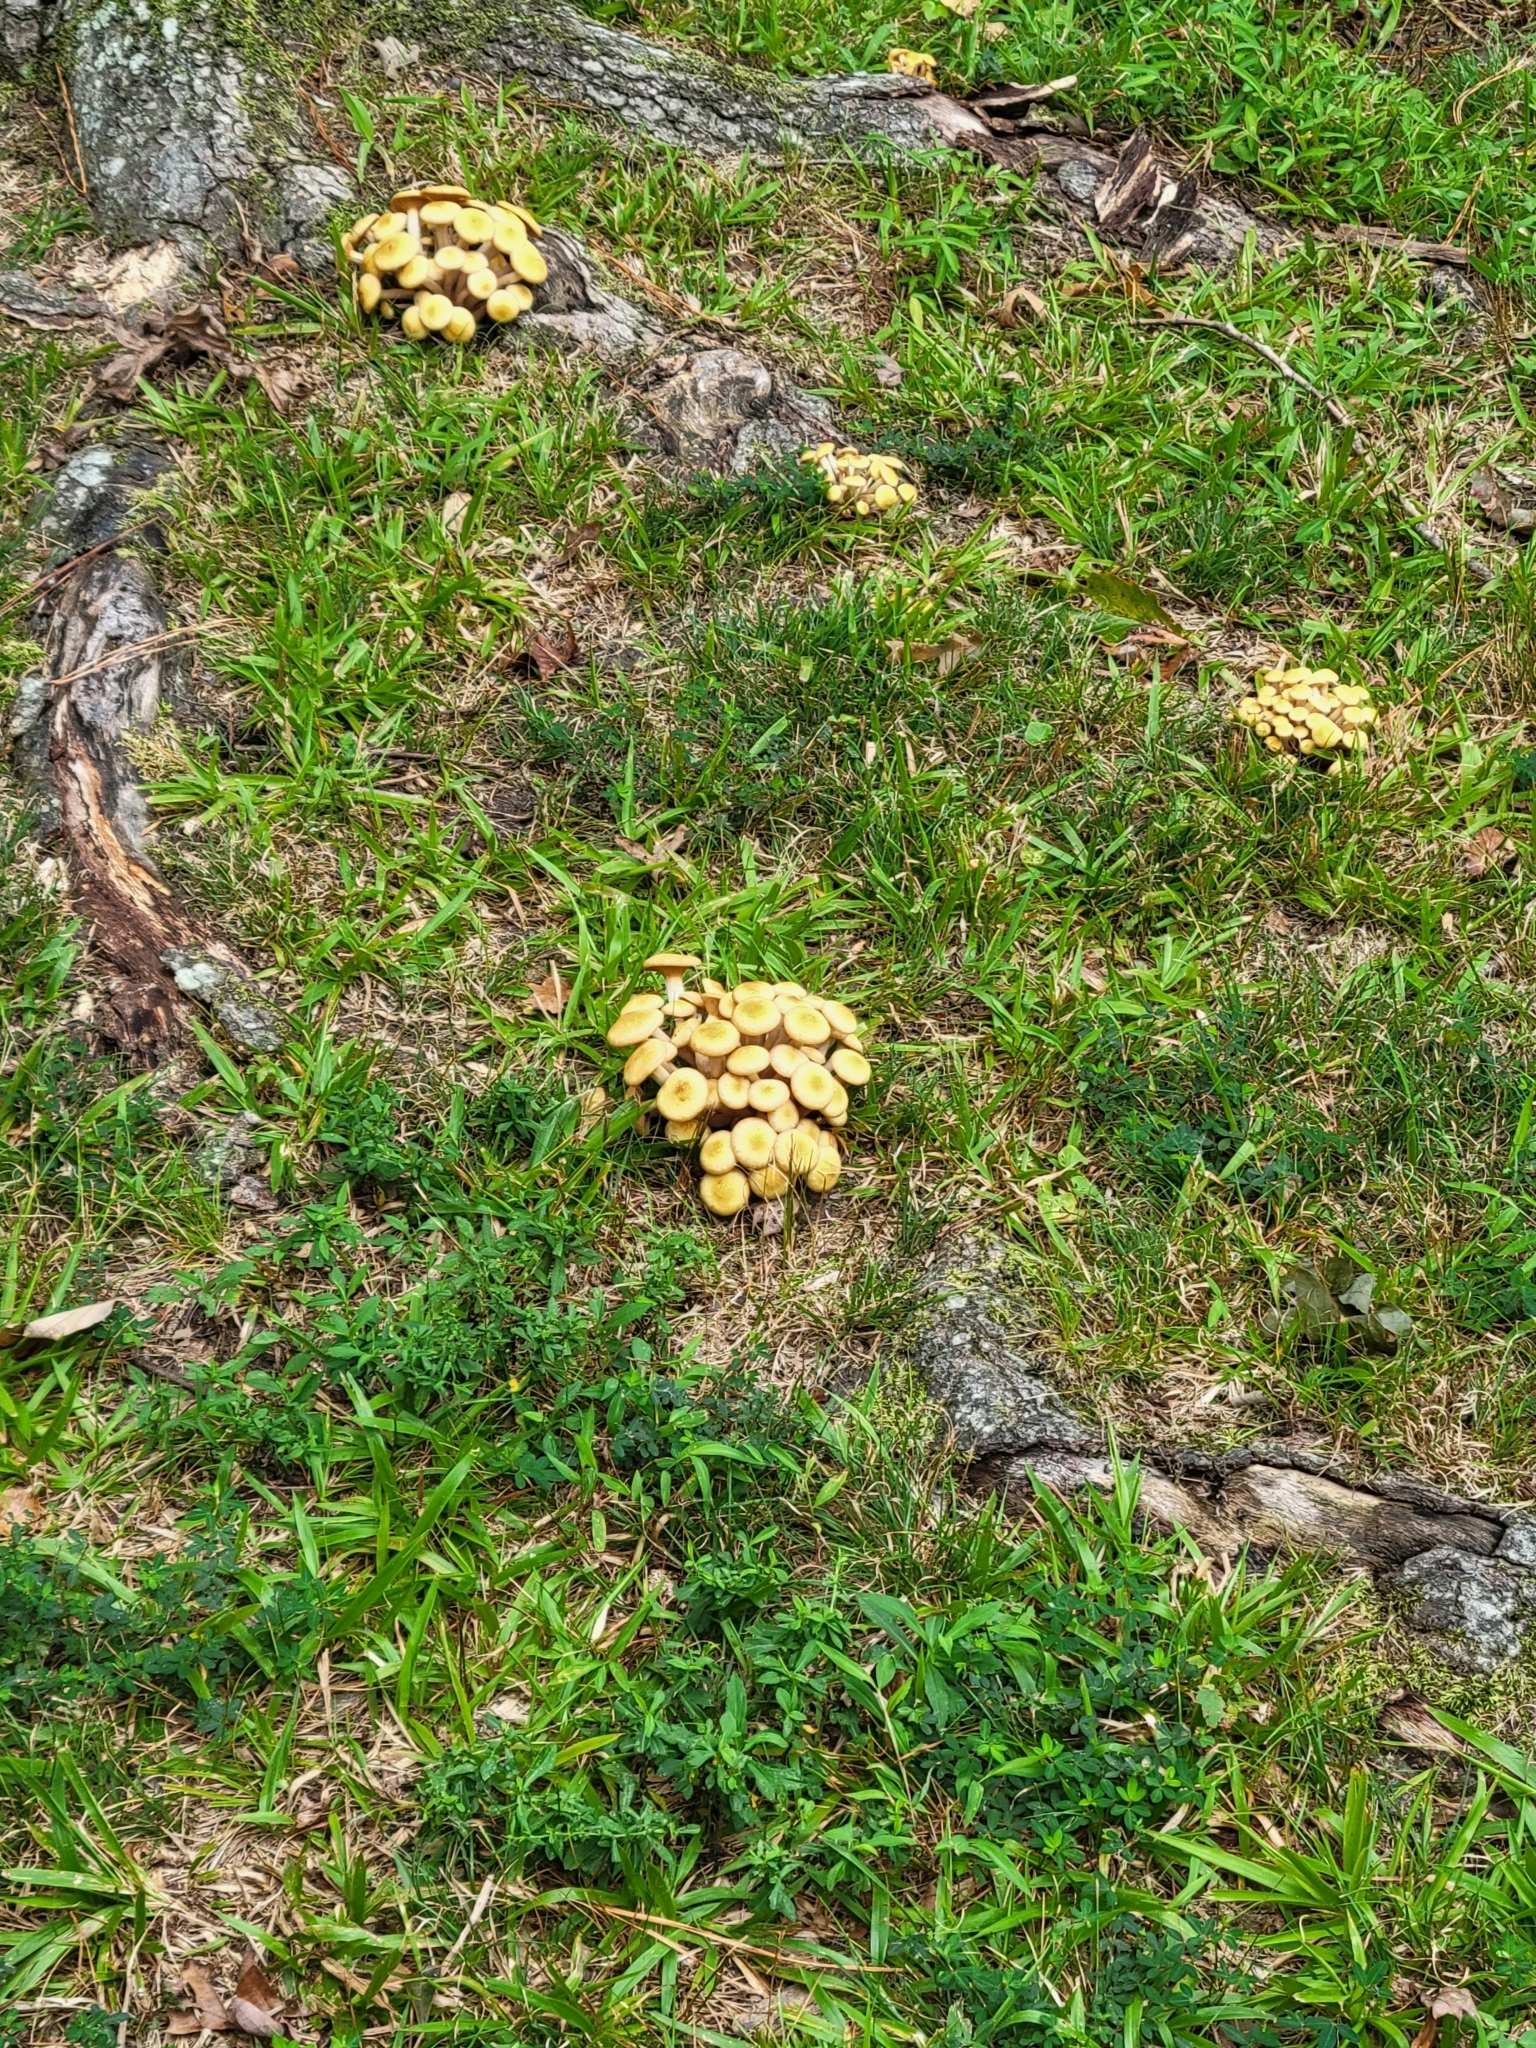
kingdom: Fungi
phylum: Basidiomycota
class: Agaricomycetes
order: Agaricales
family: Physalacriaceae
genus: Armillaria
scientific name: Armillaria mellea
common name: Honey fungus
